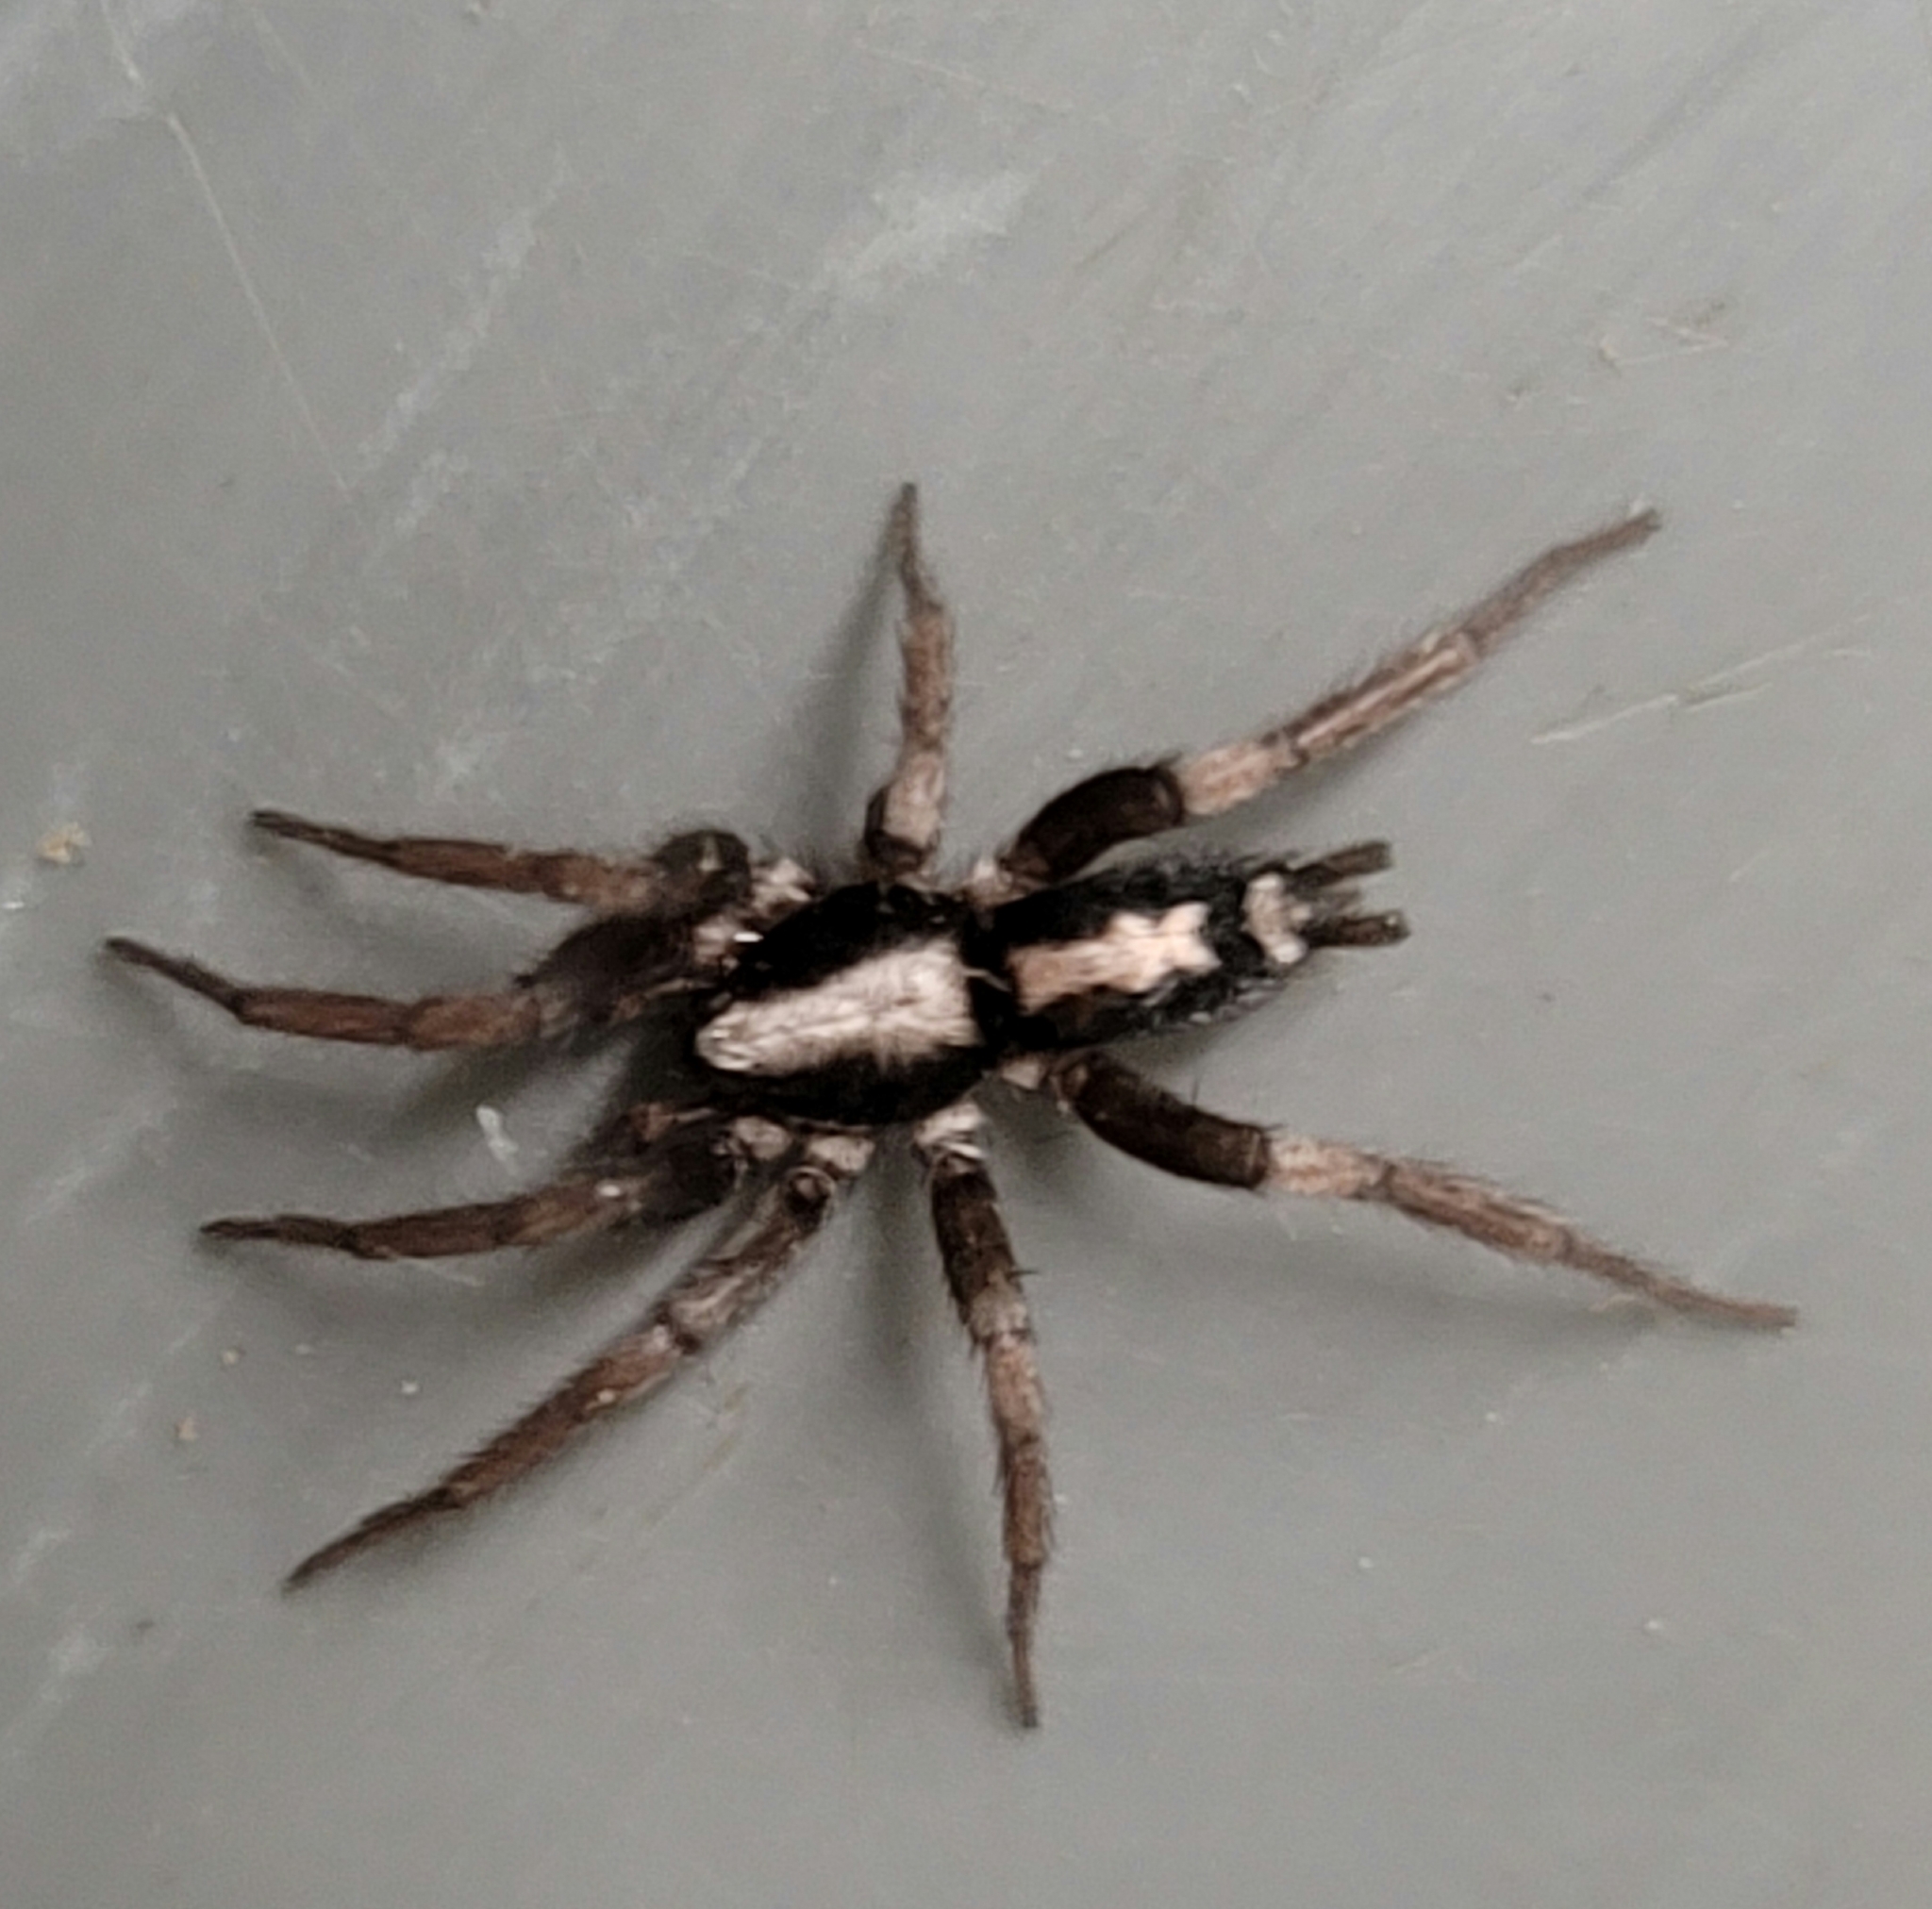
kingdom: Animalia
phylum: Arthropoda
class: Arachnida
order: Araneae
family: Gnaphosidae
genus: Herpyllus
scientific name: Herpyllus ecclesiasticus
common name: Eastern parson spider
